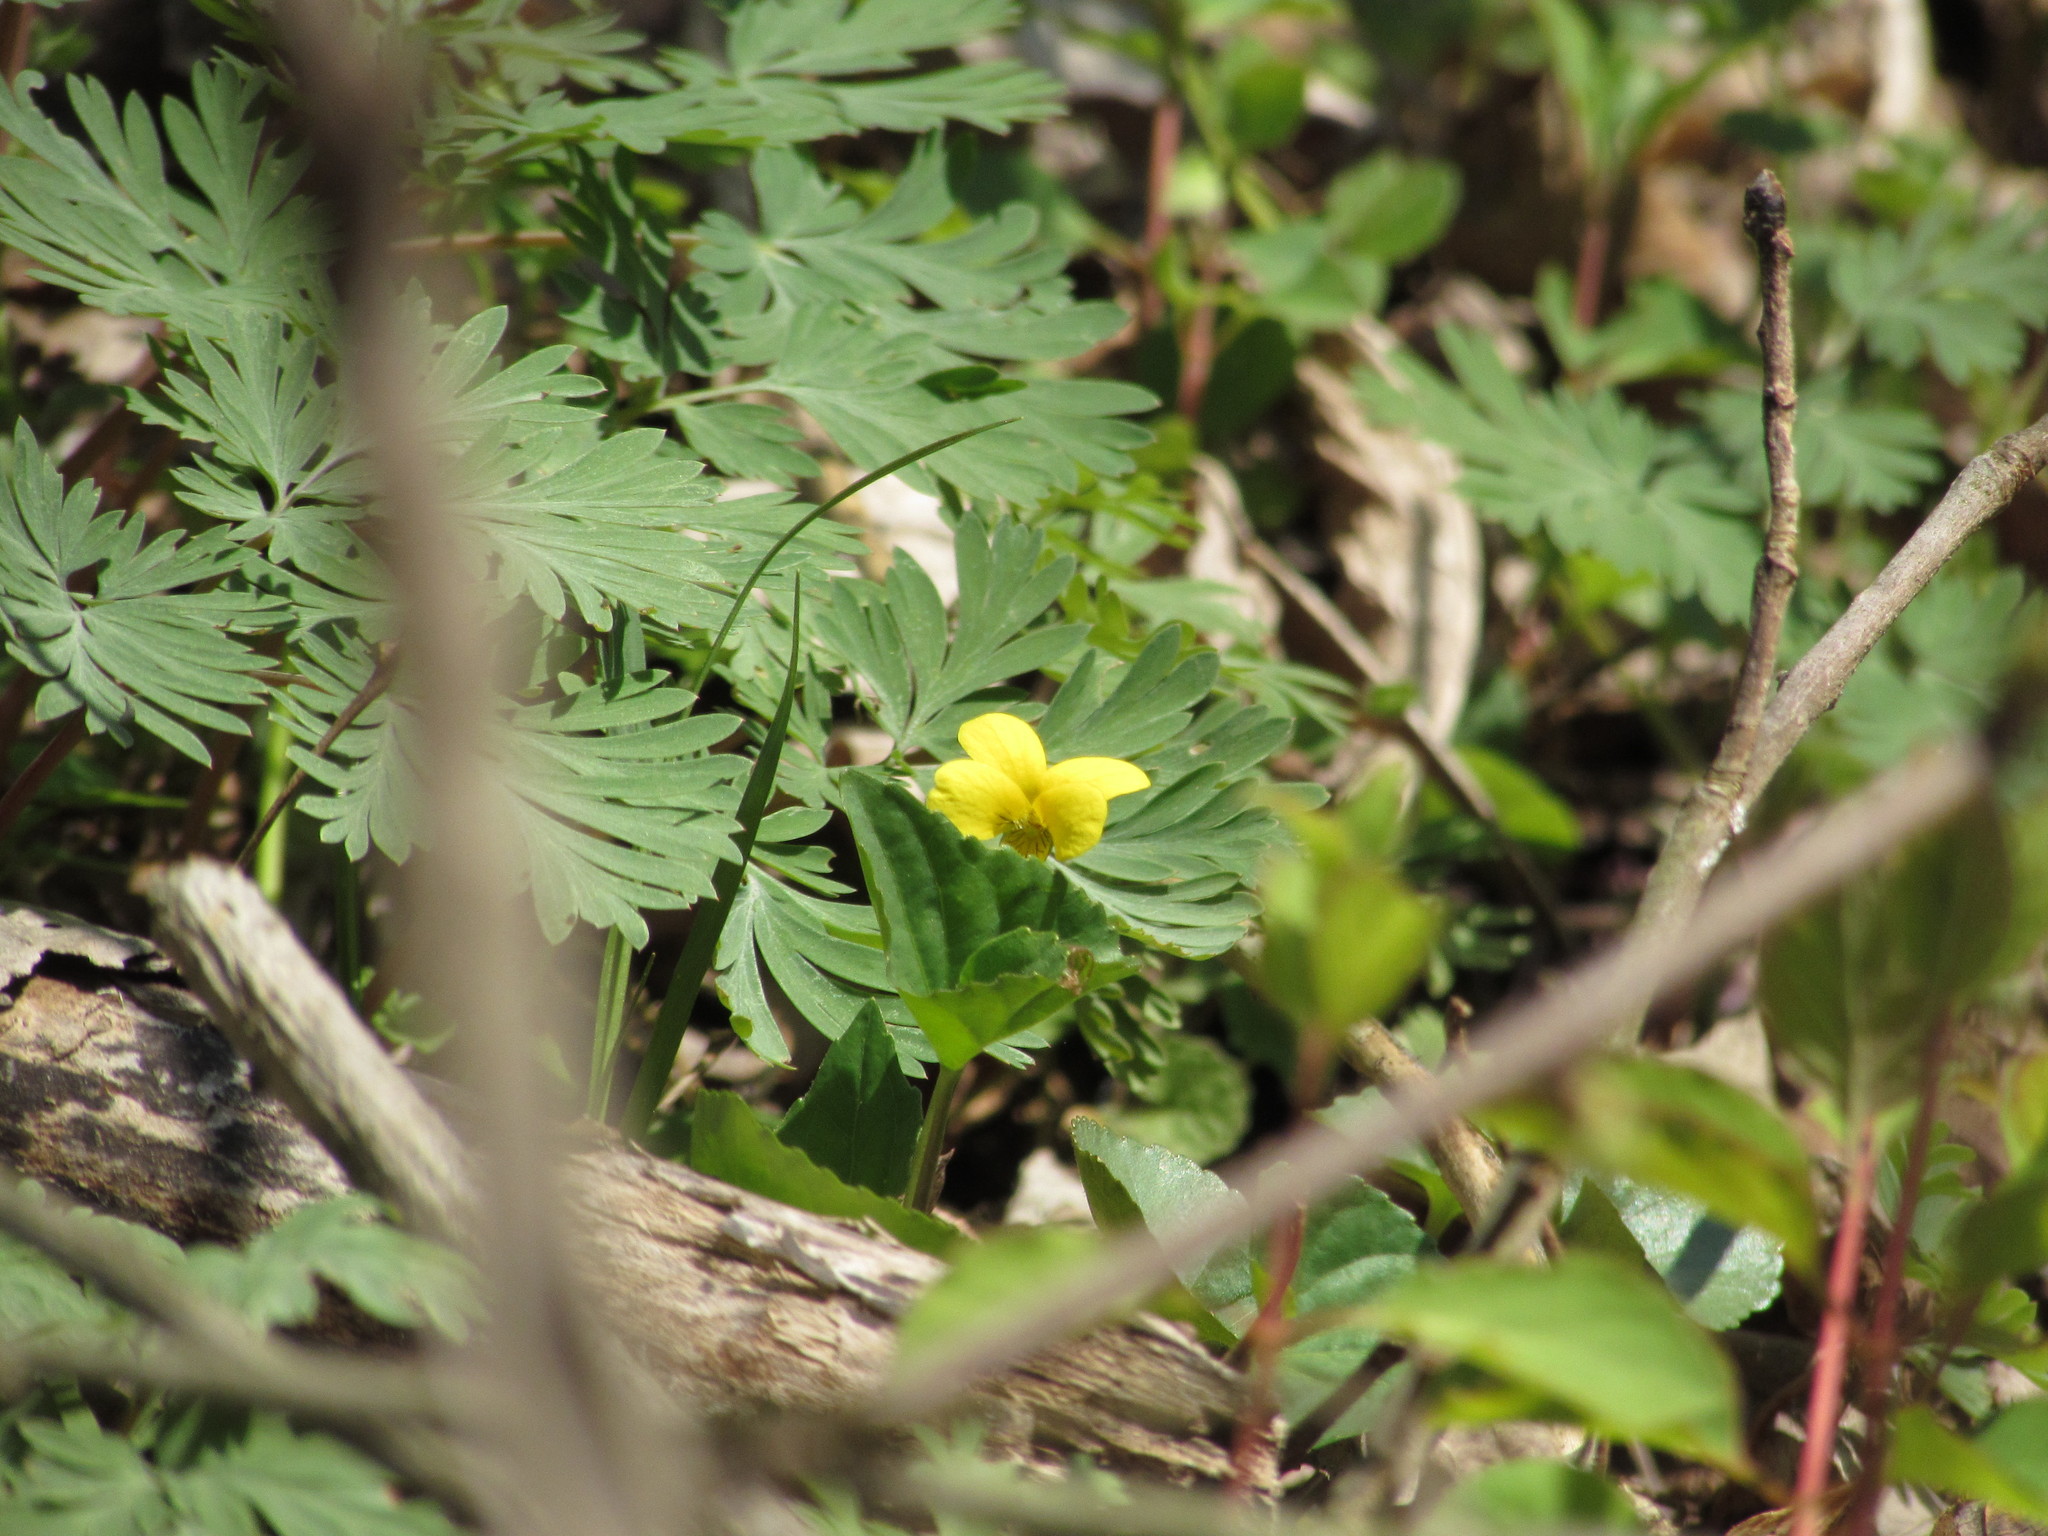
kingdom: Plantae
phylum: Tracheophyta
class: Magnoliopsida
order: Malpighiales
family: Violaceae
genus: Viola
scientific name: Viola eriocarpa
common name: Smooth yellow violet
